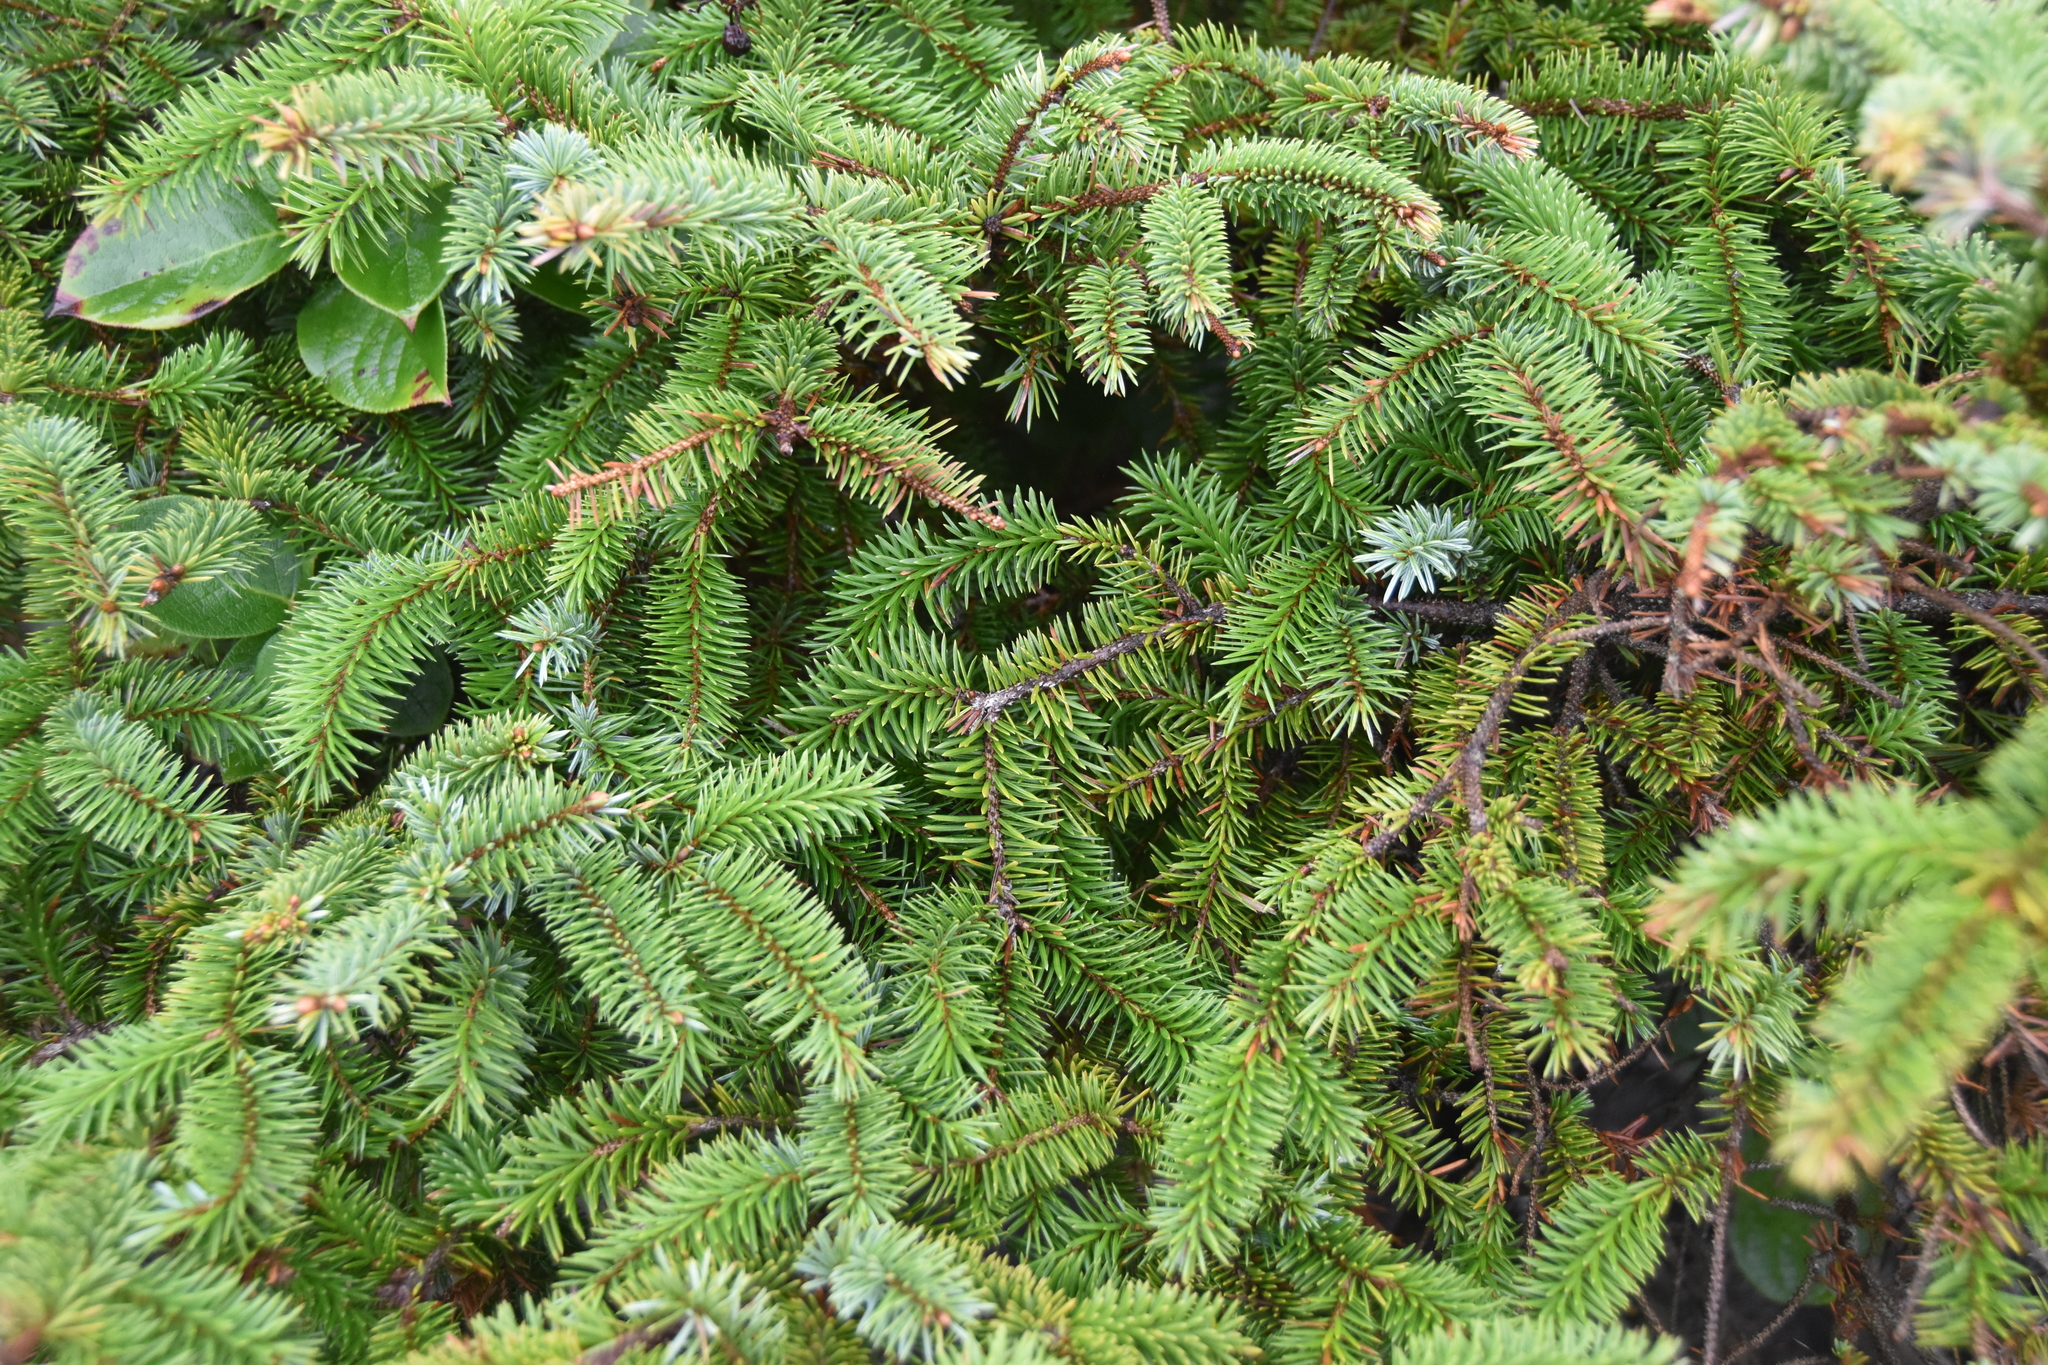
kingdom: Plantae
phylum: Tracheophyta
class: Pinopsida
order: Pinales
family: Pinaceae
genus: Picea
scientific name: Picea sitchensis
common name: Sitka spruce
